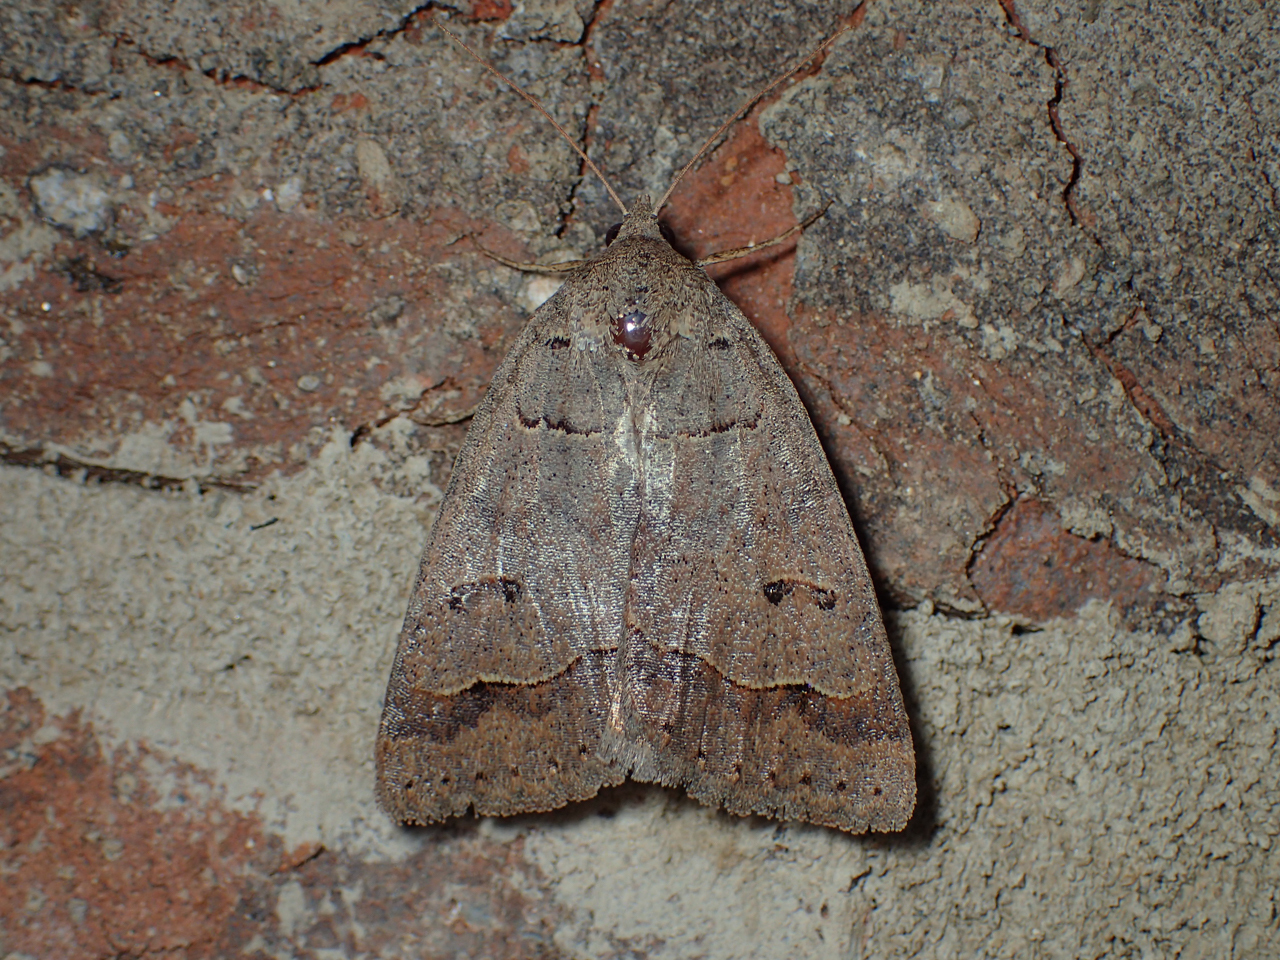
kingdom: Animalia
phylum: Arthropoda
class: Insecta
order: Lepidoptera
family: Erebidae
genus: Phoberia
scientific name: Phoberia atomaris
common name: Common oak moth
